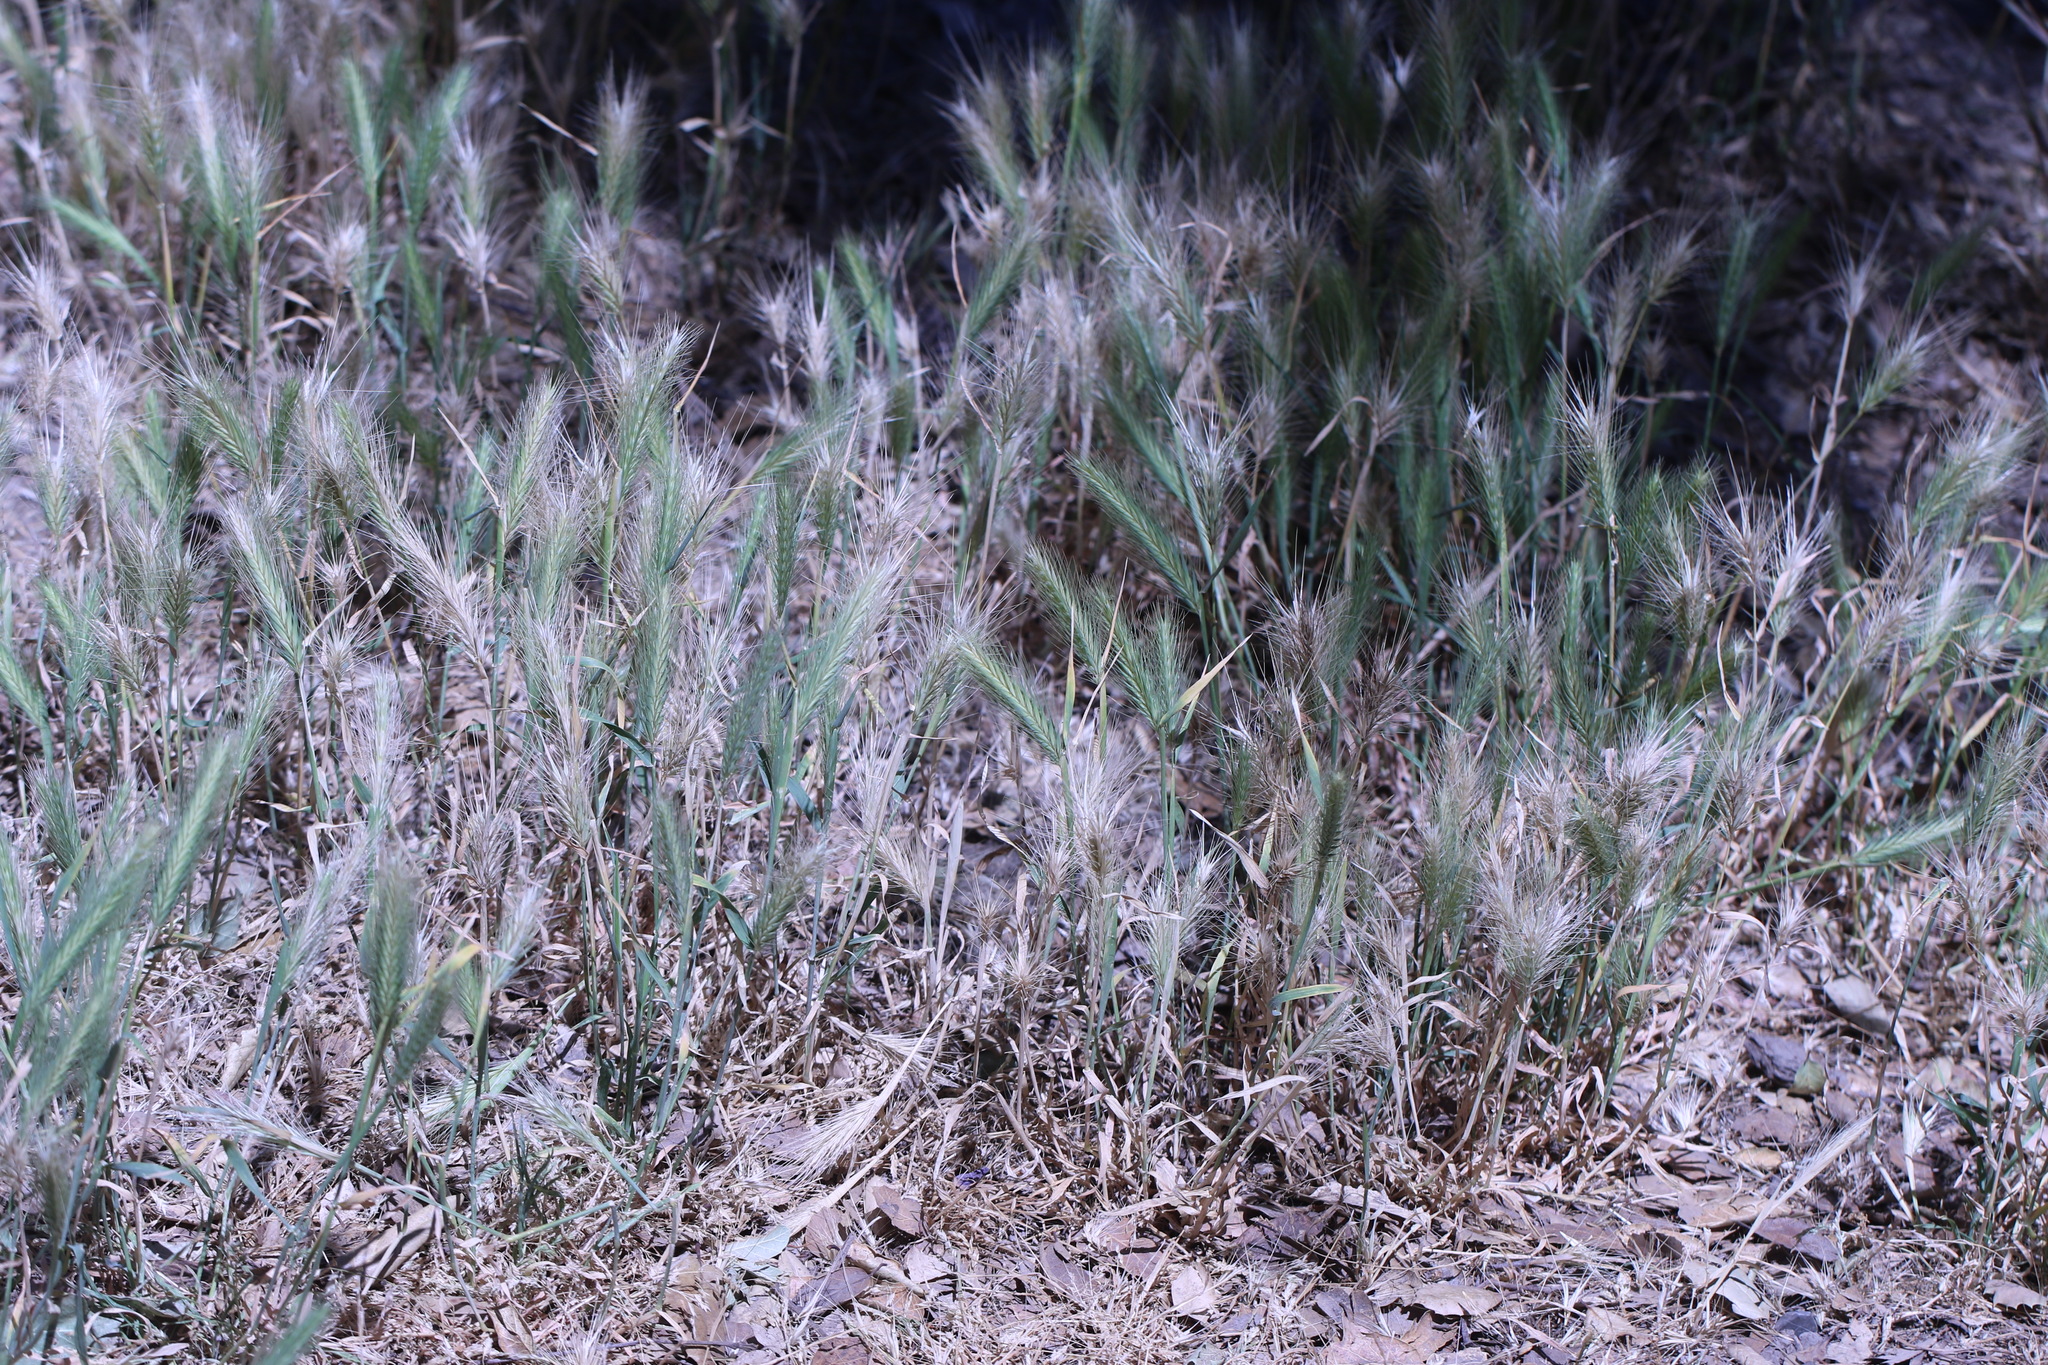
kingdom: Plantae
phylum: Tracheophyta
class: Liliopsida
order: Poales
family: Poaceae
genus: Hordeum
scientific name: Hordeum murinum
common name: Wall barley
